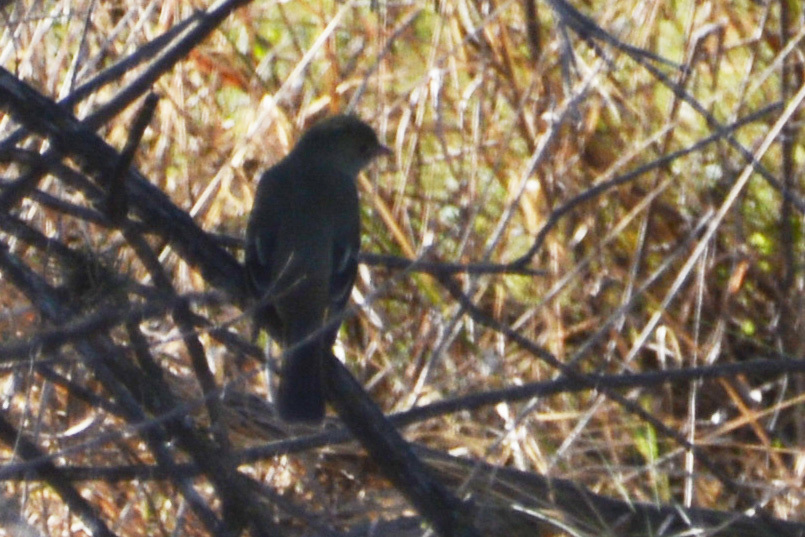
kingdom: Animalia
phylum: Chordata
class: Aves
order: Passeriformes
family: Tyrannidae
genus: Elaenia
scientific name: Elaenia parvirostris
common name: Small-billed elaenia
